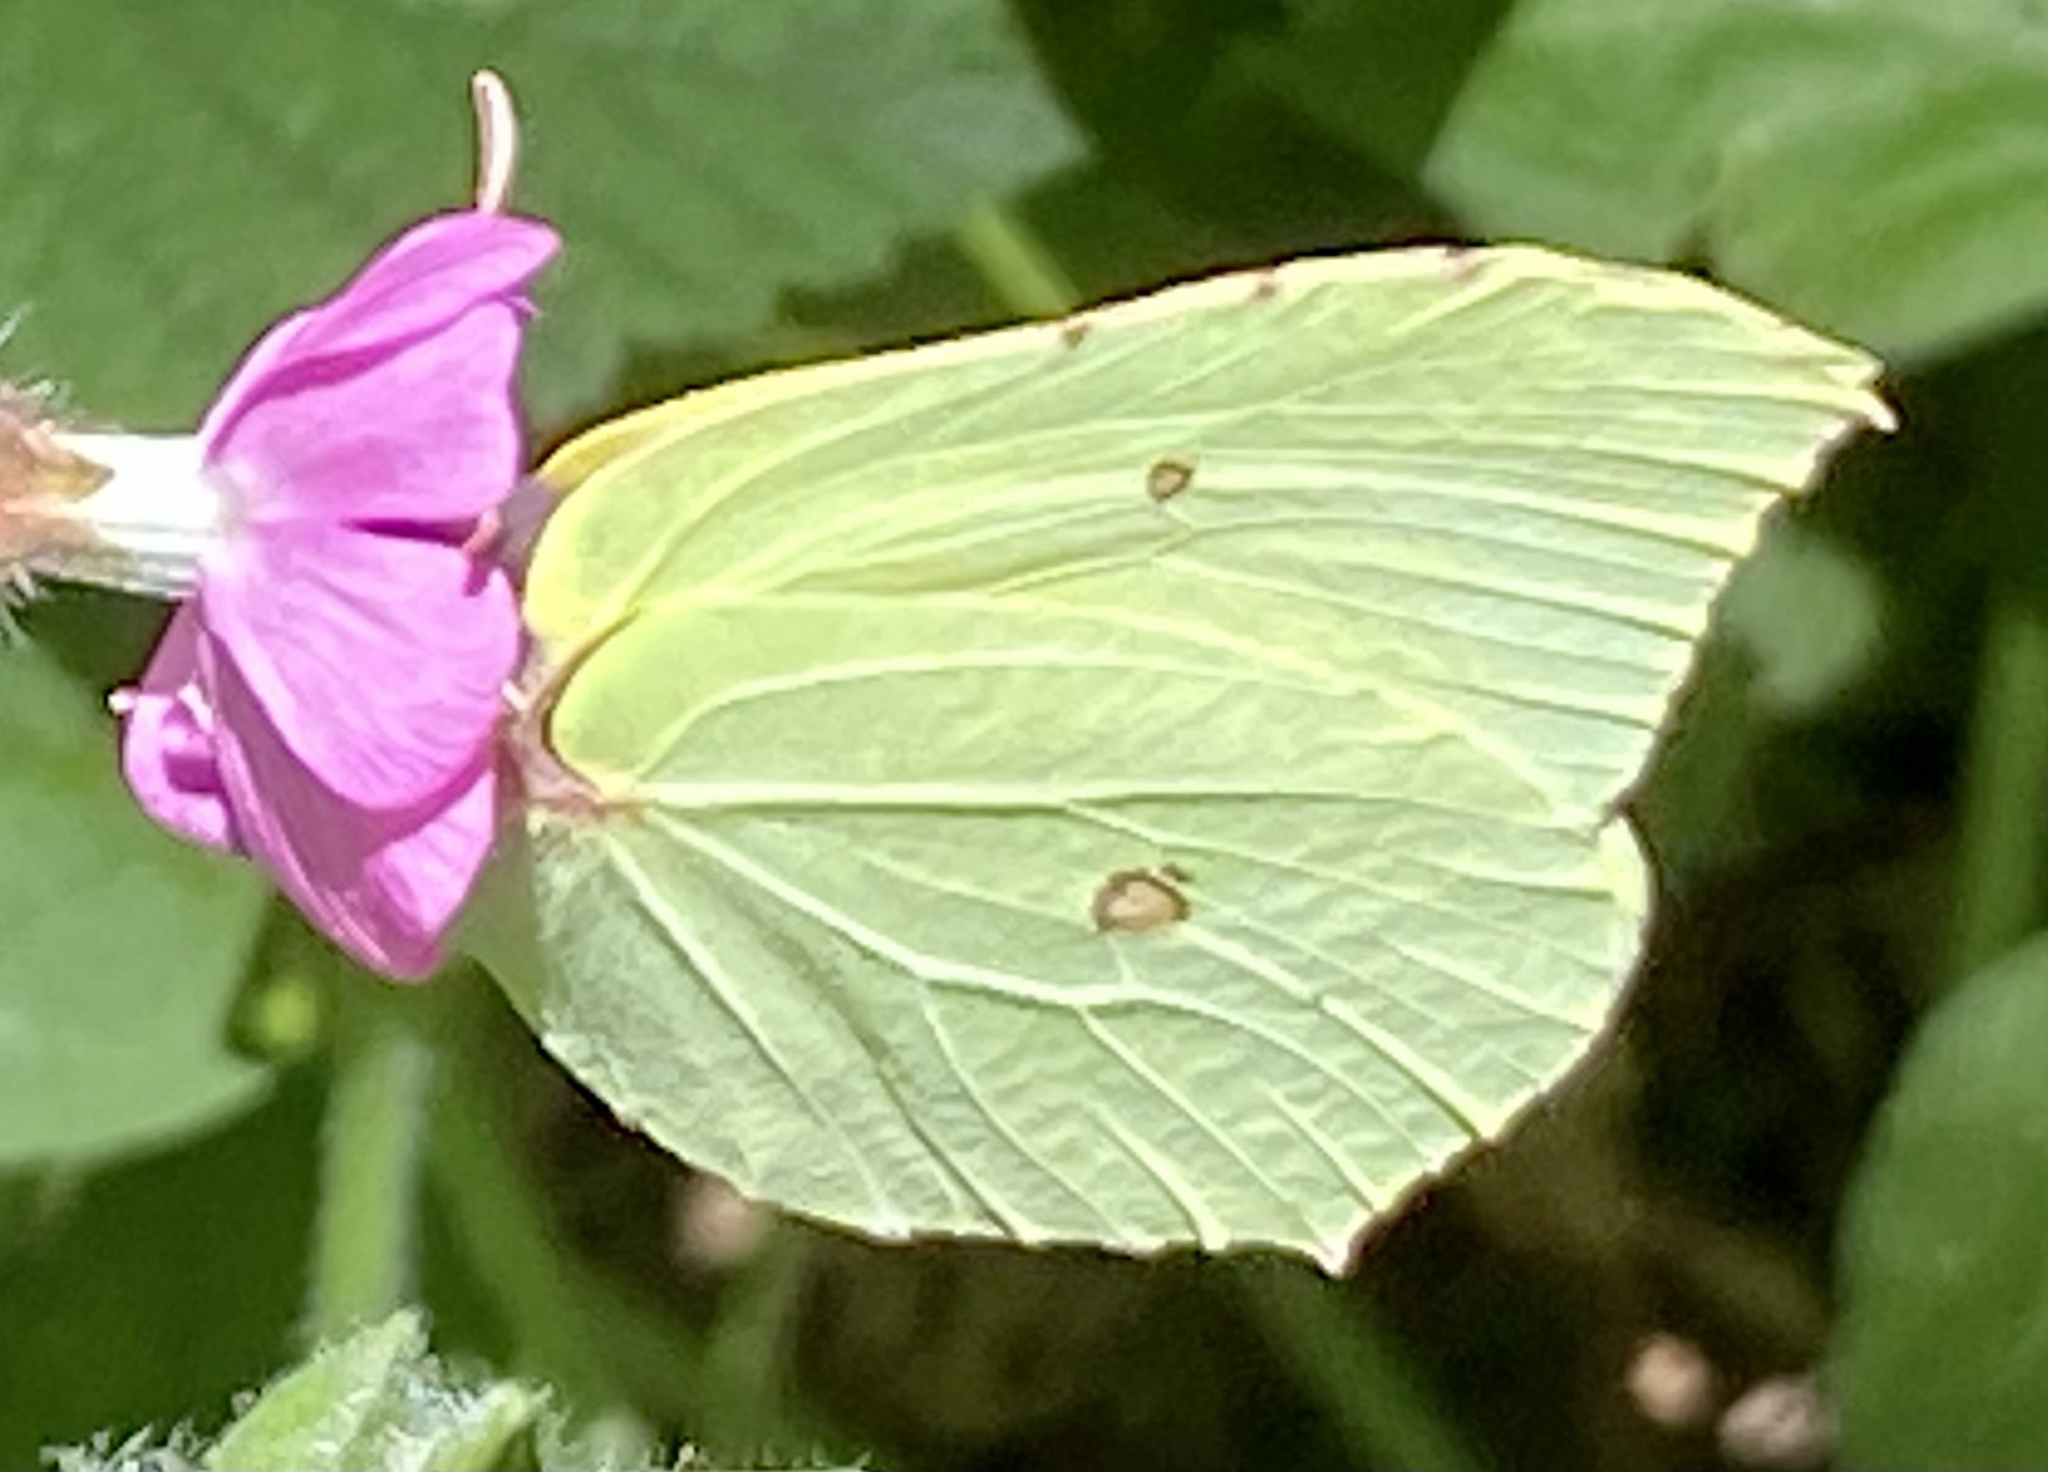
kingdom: Animalia
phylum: Arthropoda
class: Insecta
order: Lepidoptera
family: Pieridae
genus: Gonepteryx
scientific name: Gonepteryx rhamni
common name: Brimstone
